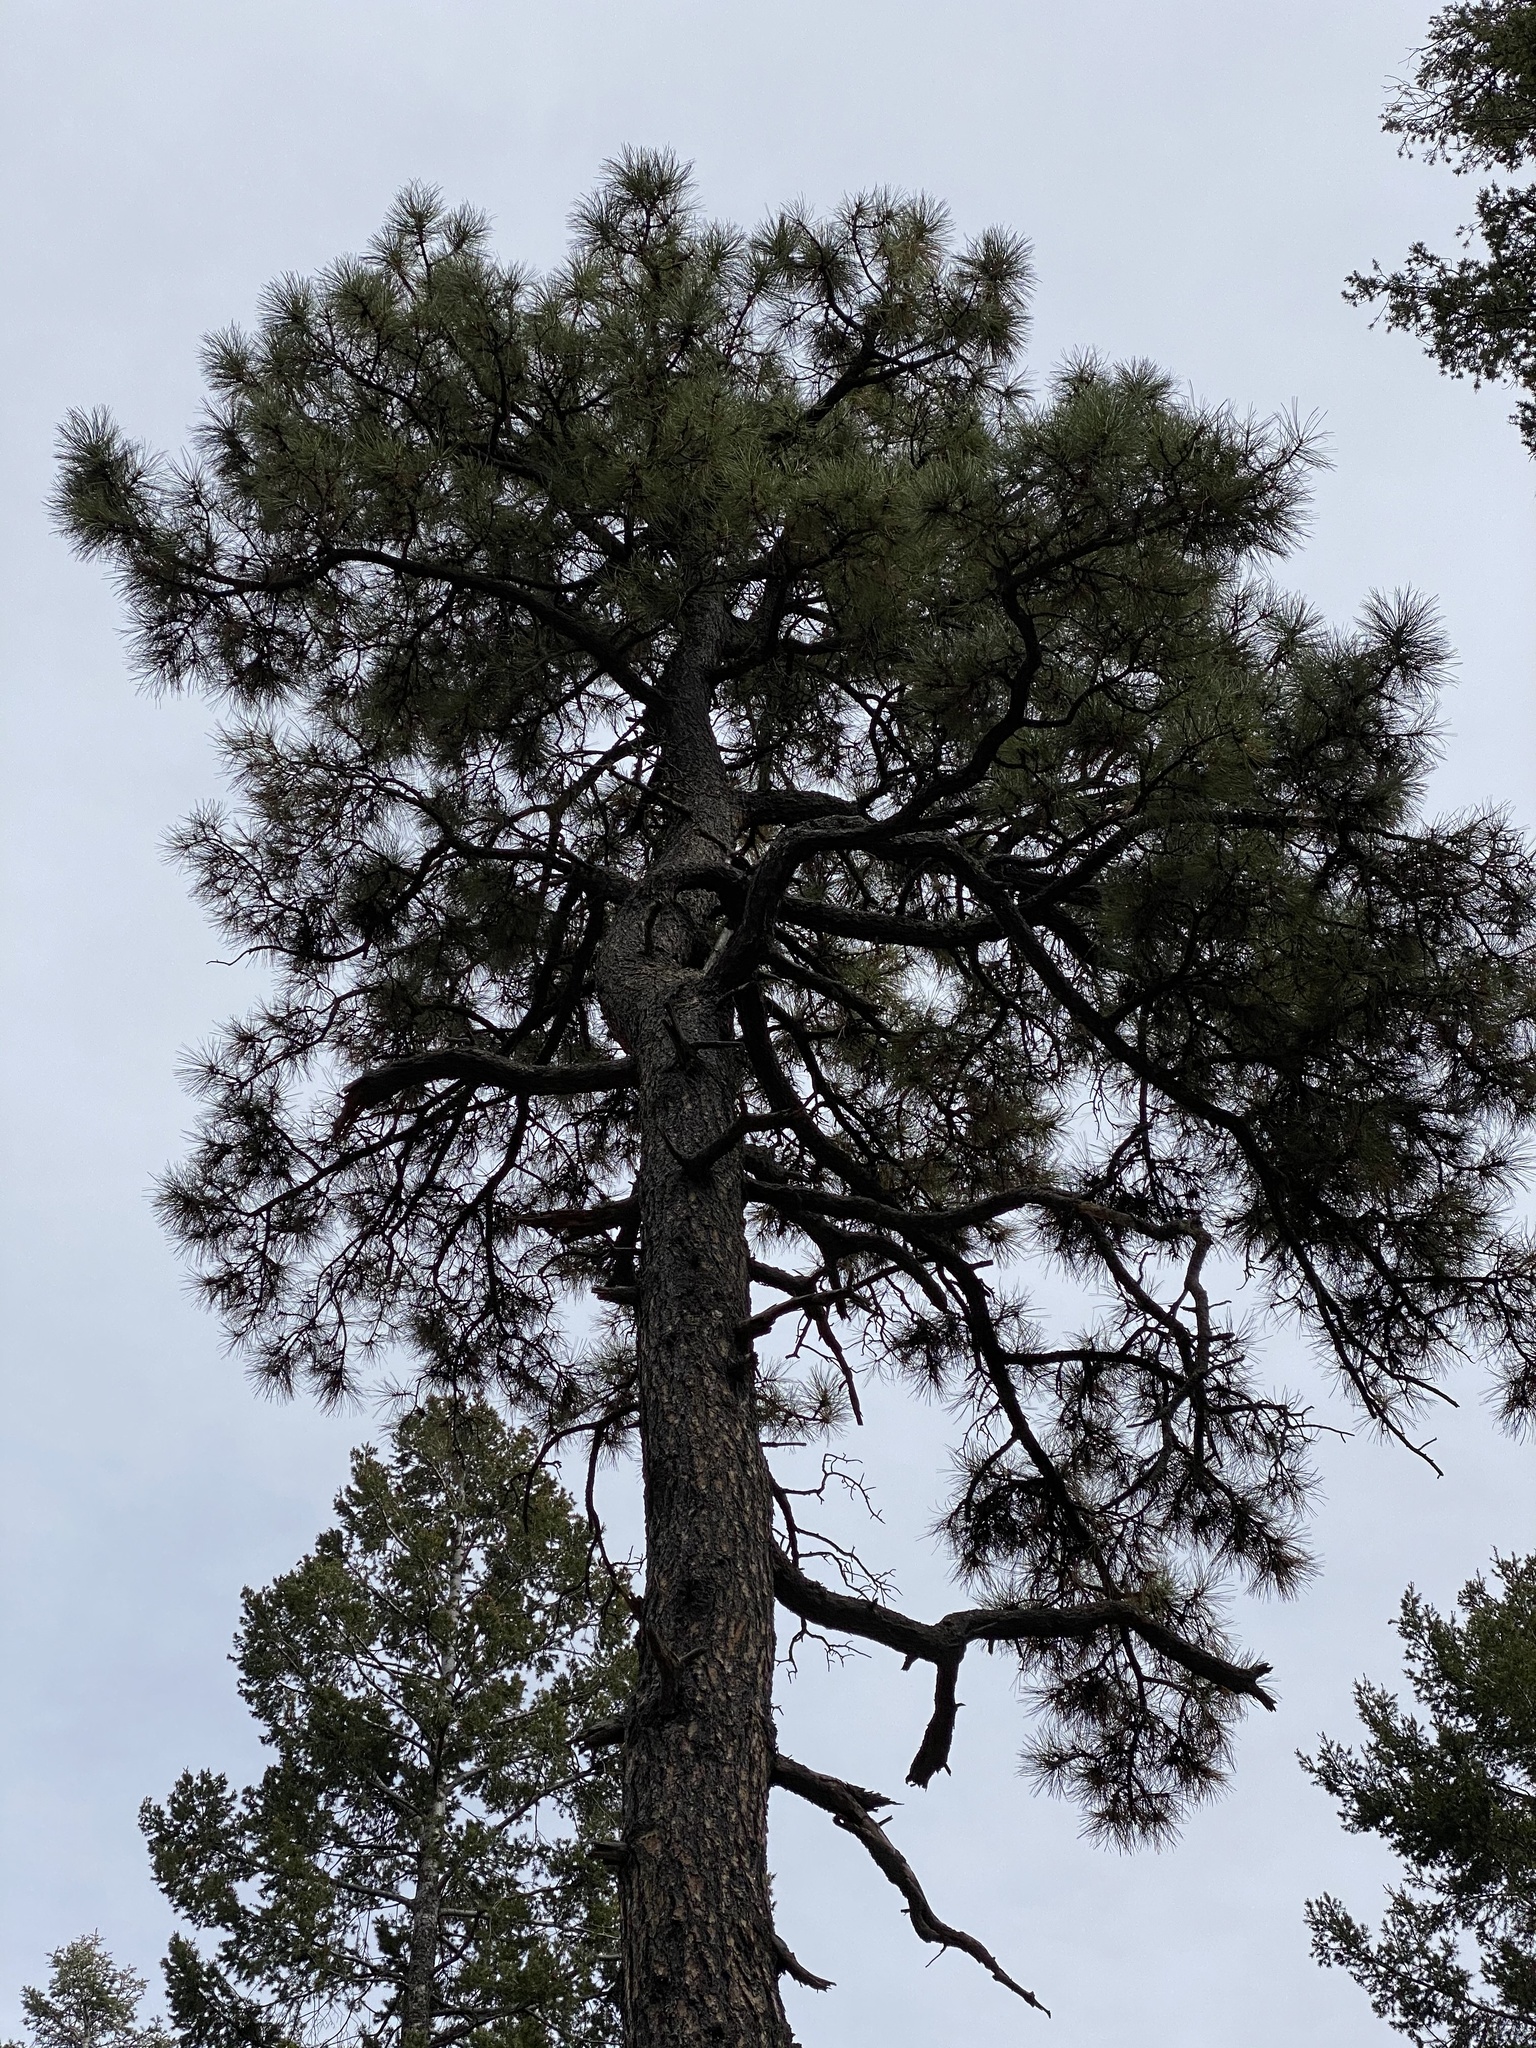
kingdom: Plantae
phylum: Tracheophyta
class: Pinopsida
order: Pinales
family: Pinaceae
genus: Pinus
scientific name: Pinus ponderosa
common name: Western yellow-pine
